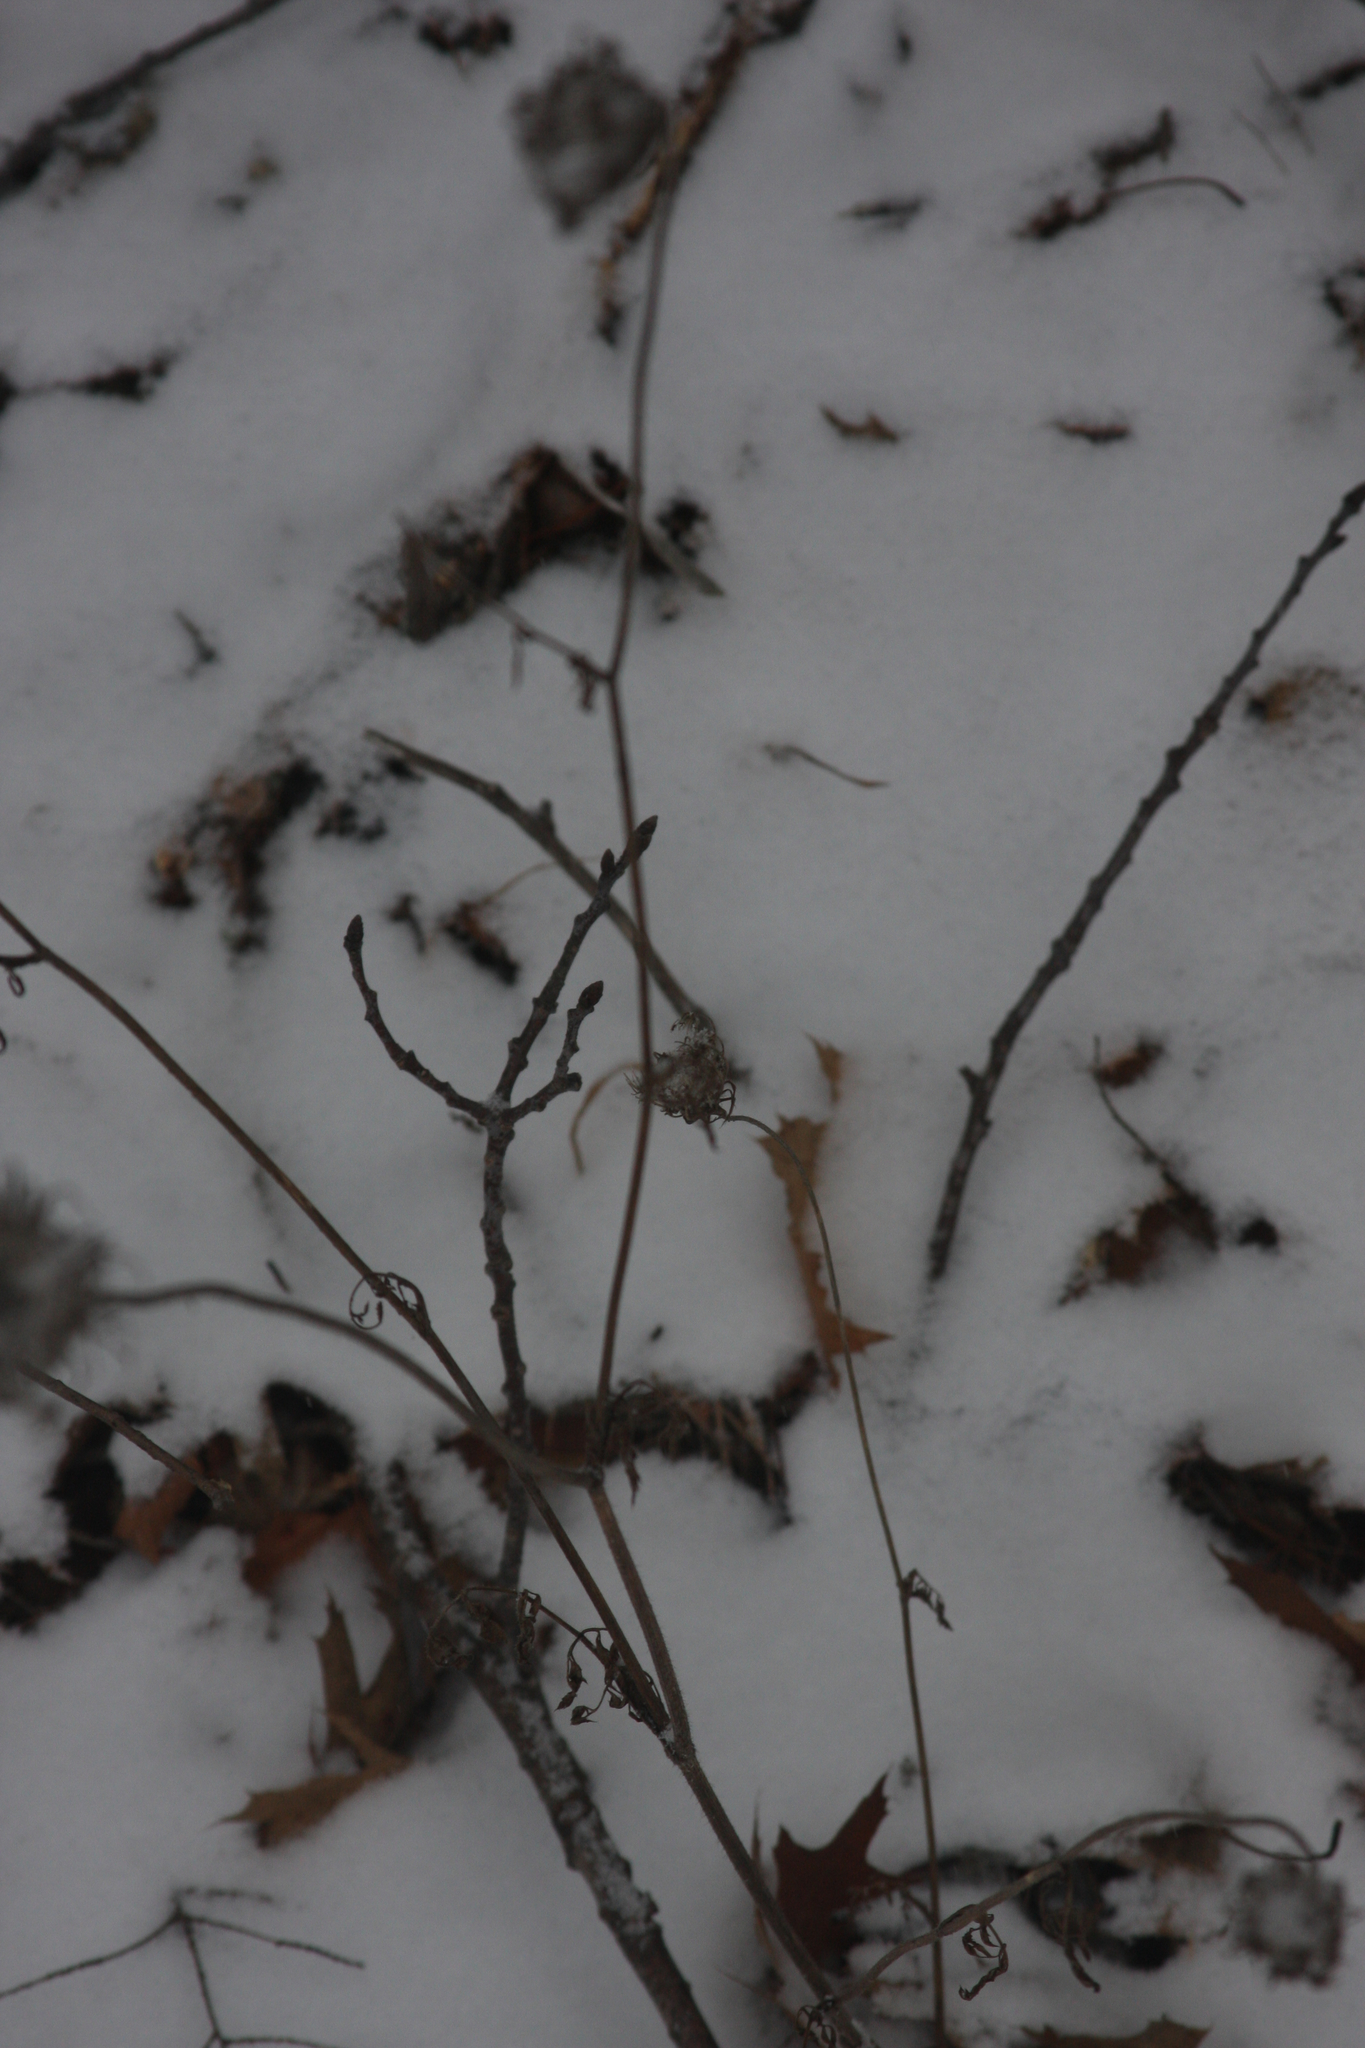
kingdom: Plantae
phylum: Tracheophyta
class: Magnoliopsida
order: Apiales
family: Apiaceae
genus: Daucus
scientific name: Daucus carota
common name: Wild carrot
